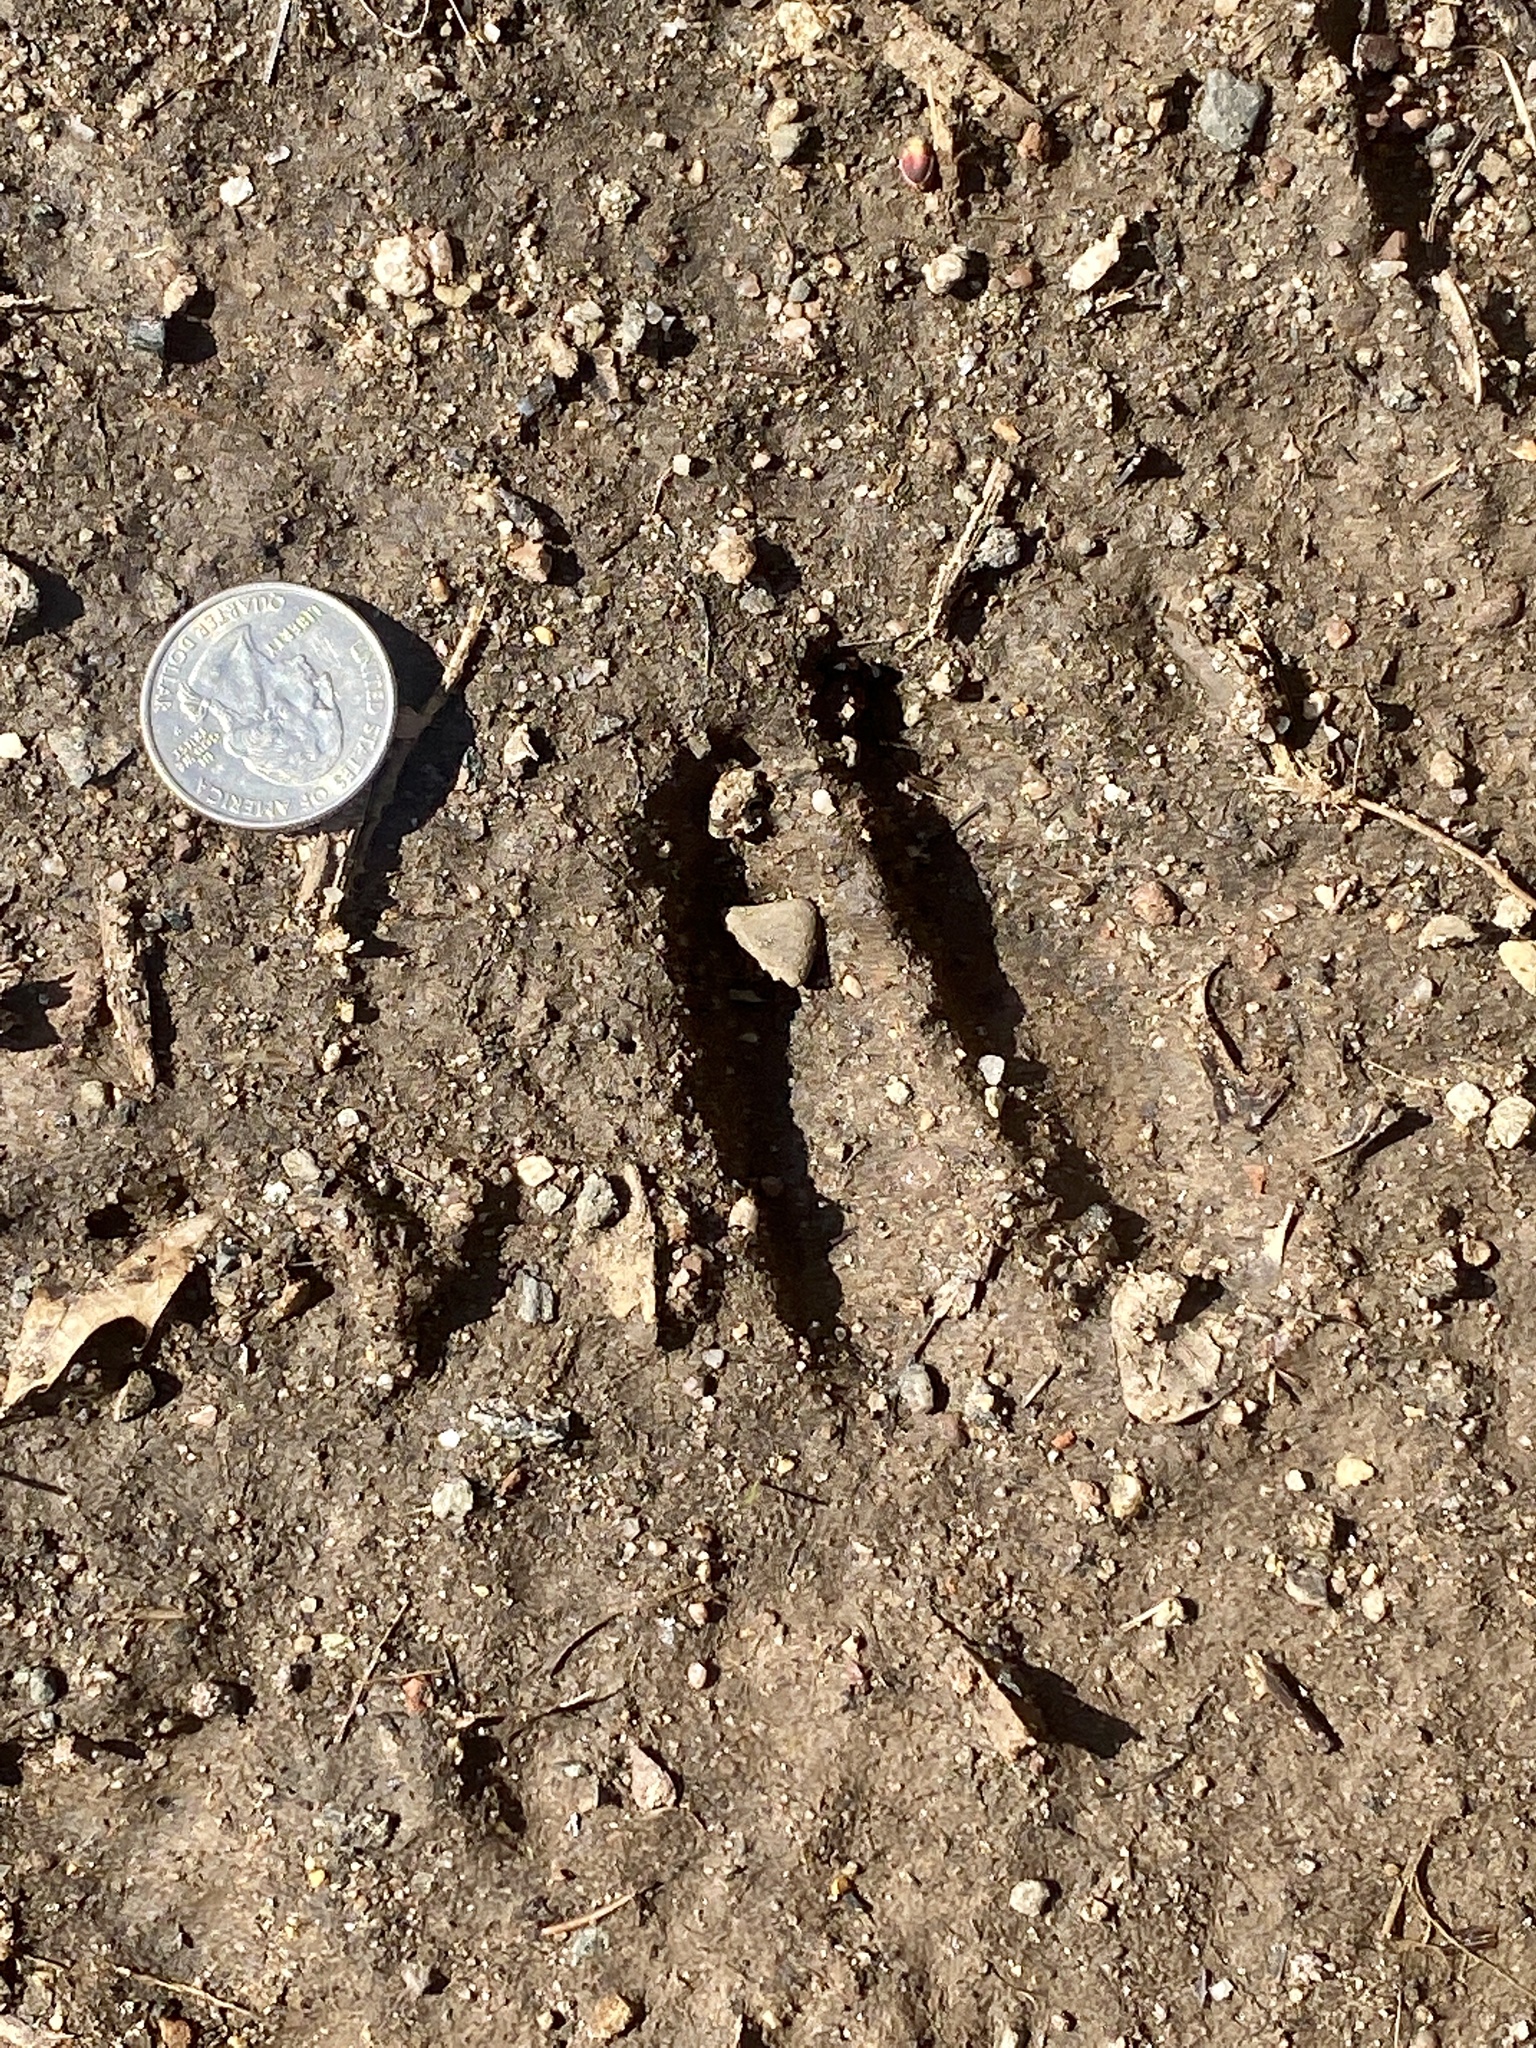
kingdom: Animalia
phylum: Chordata
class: Mammalia
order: Artiodactyla
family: Cervidae
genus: Odocoileus
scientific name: Odocoileus virginianus
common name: White-tailed deer
